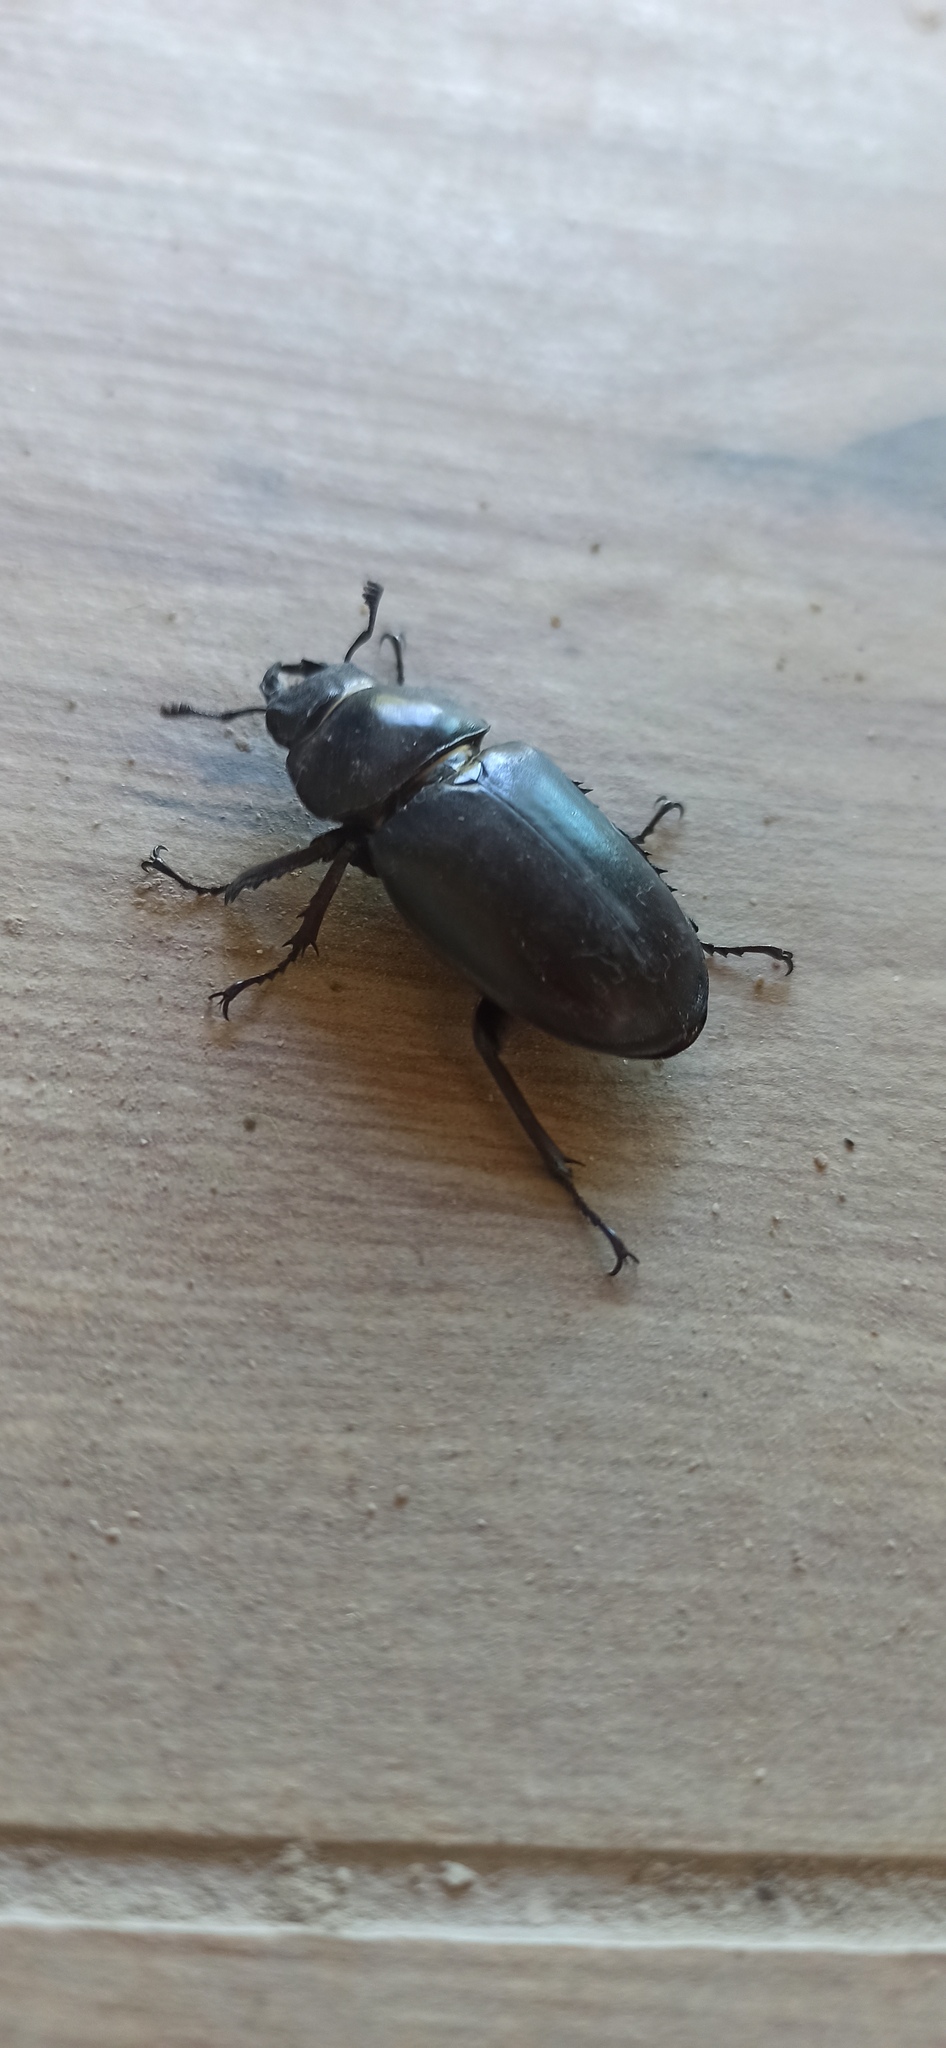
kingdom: Animalia
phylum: Arthropoda
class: Insecta
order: Coleoptera
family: Lucanidae
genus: Lucanus
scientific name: Lucanus cervus
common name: Stag beetle
